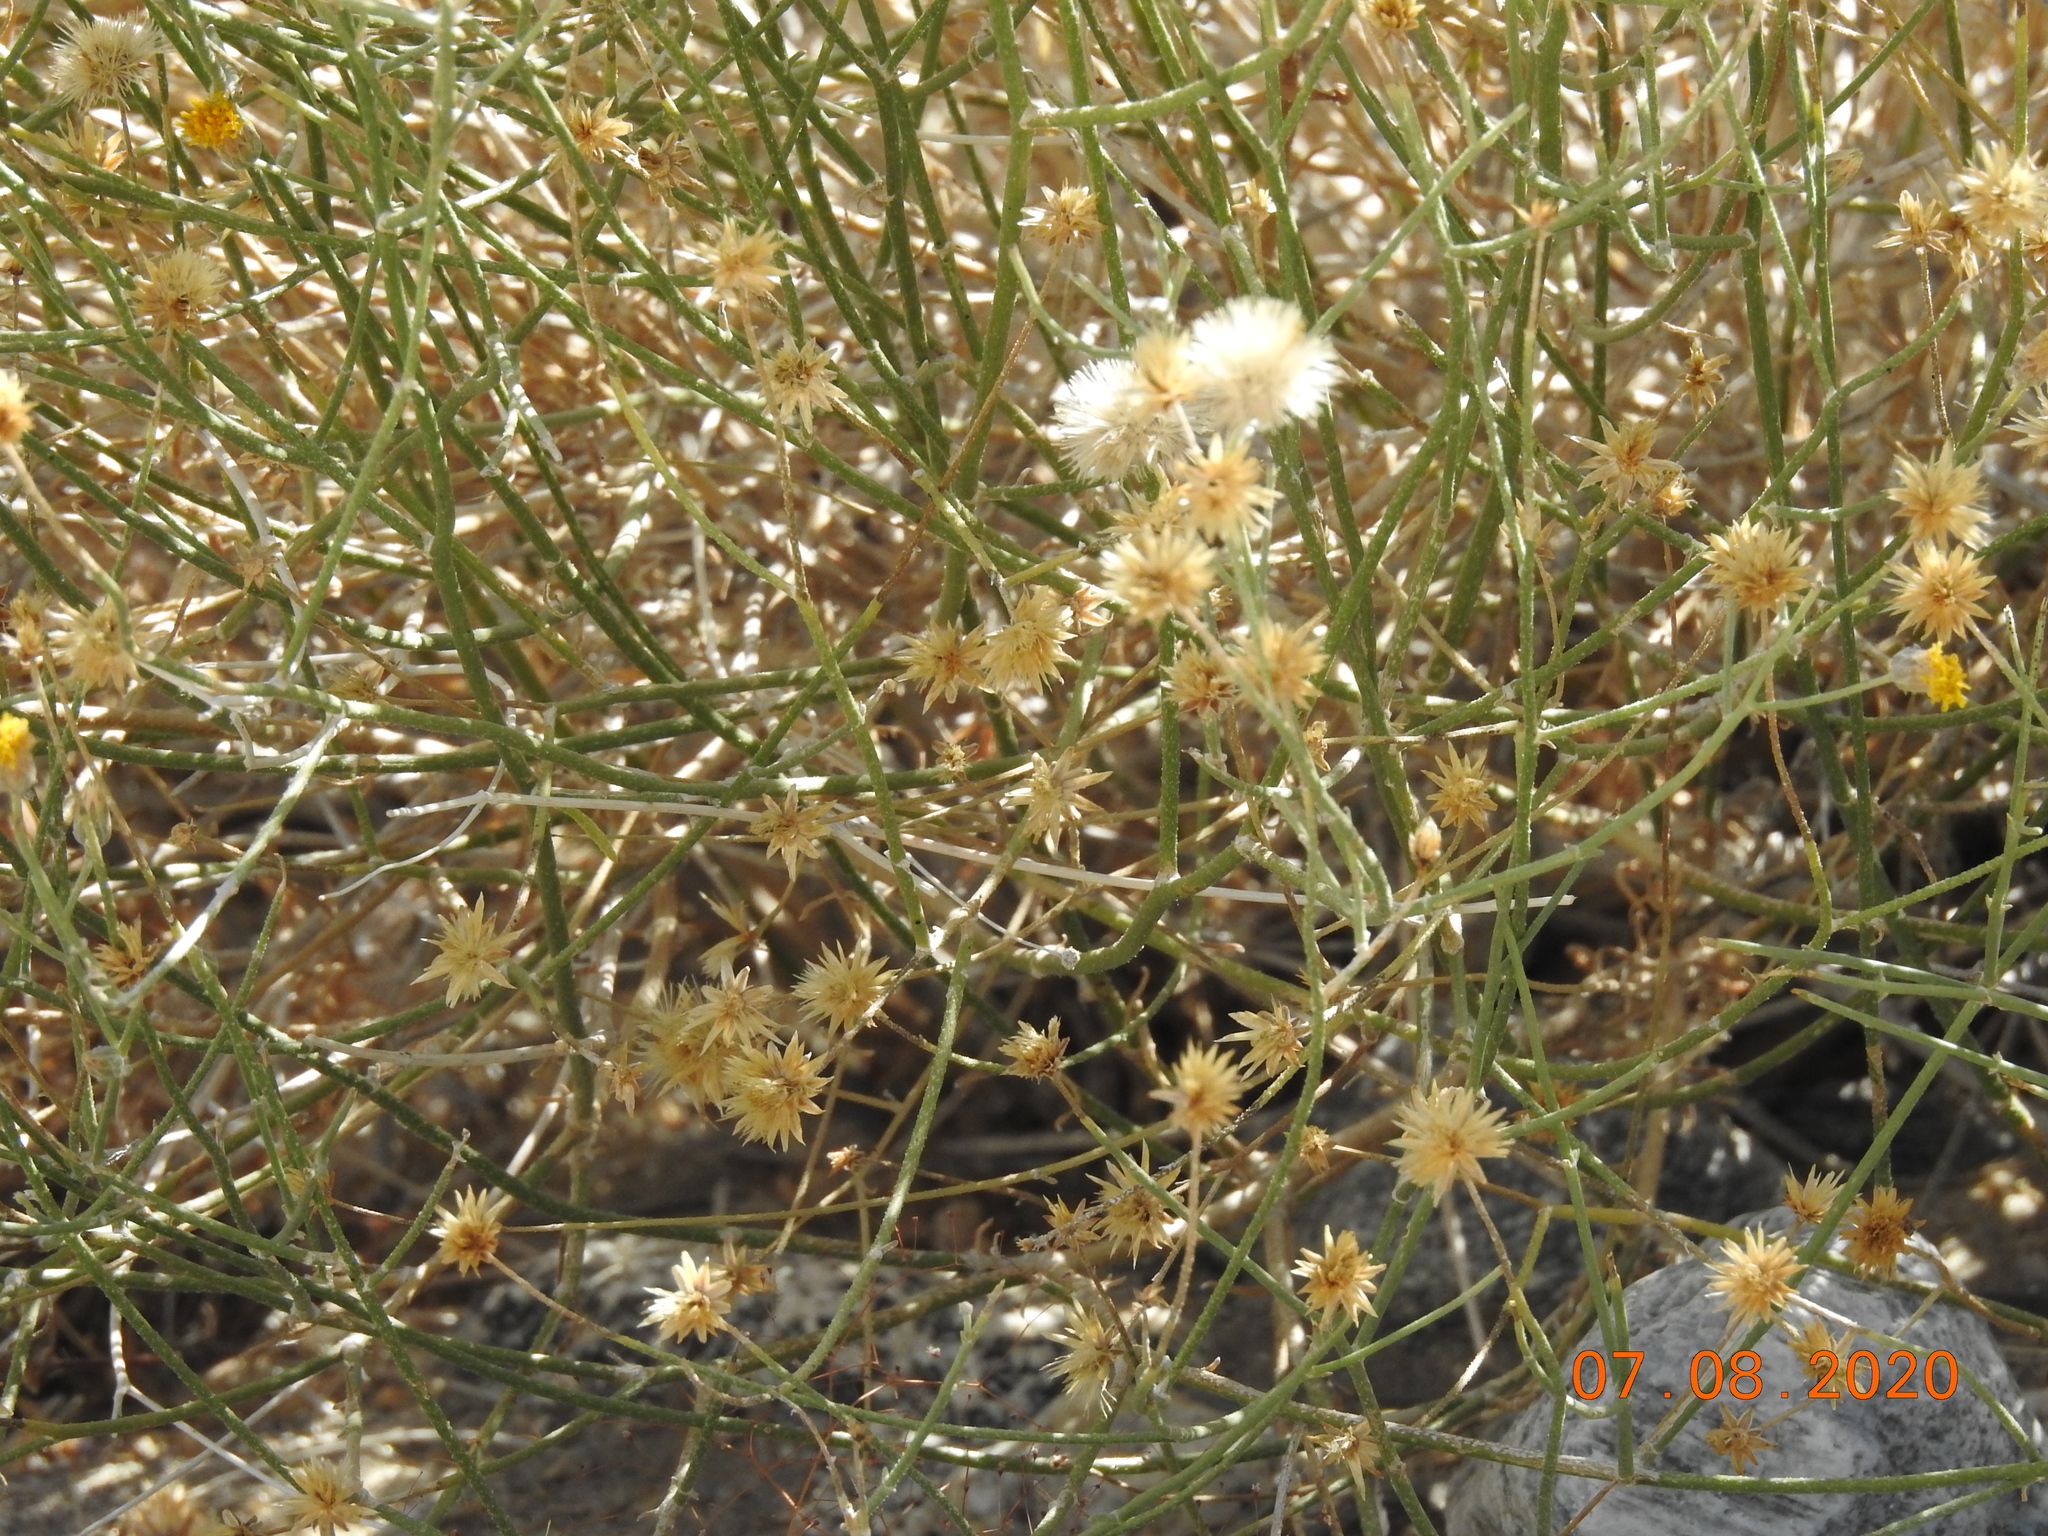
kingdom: Plantae
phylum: Tracheophyta
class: Magnoliopsida
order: Asterales
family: Asteraceae
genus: Bebbia
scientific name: Bebbia juncea
